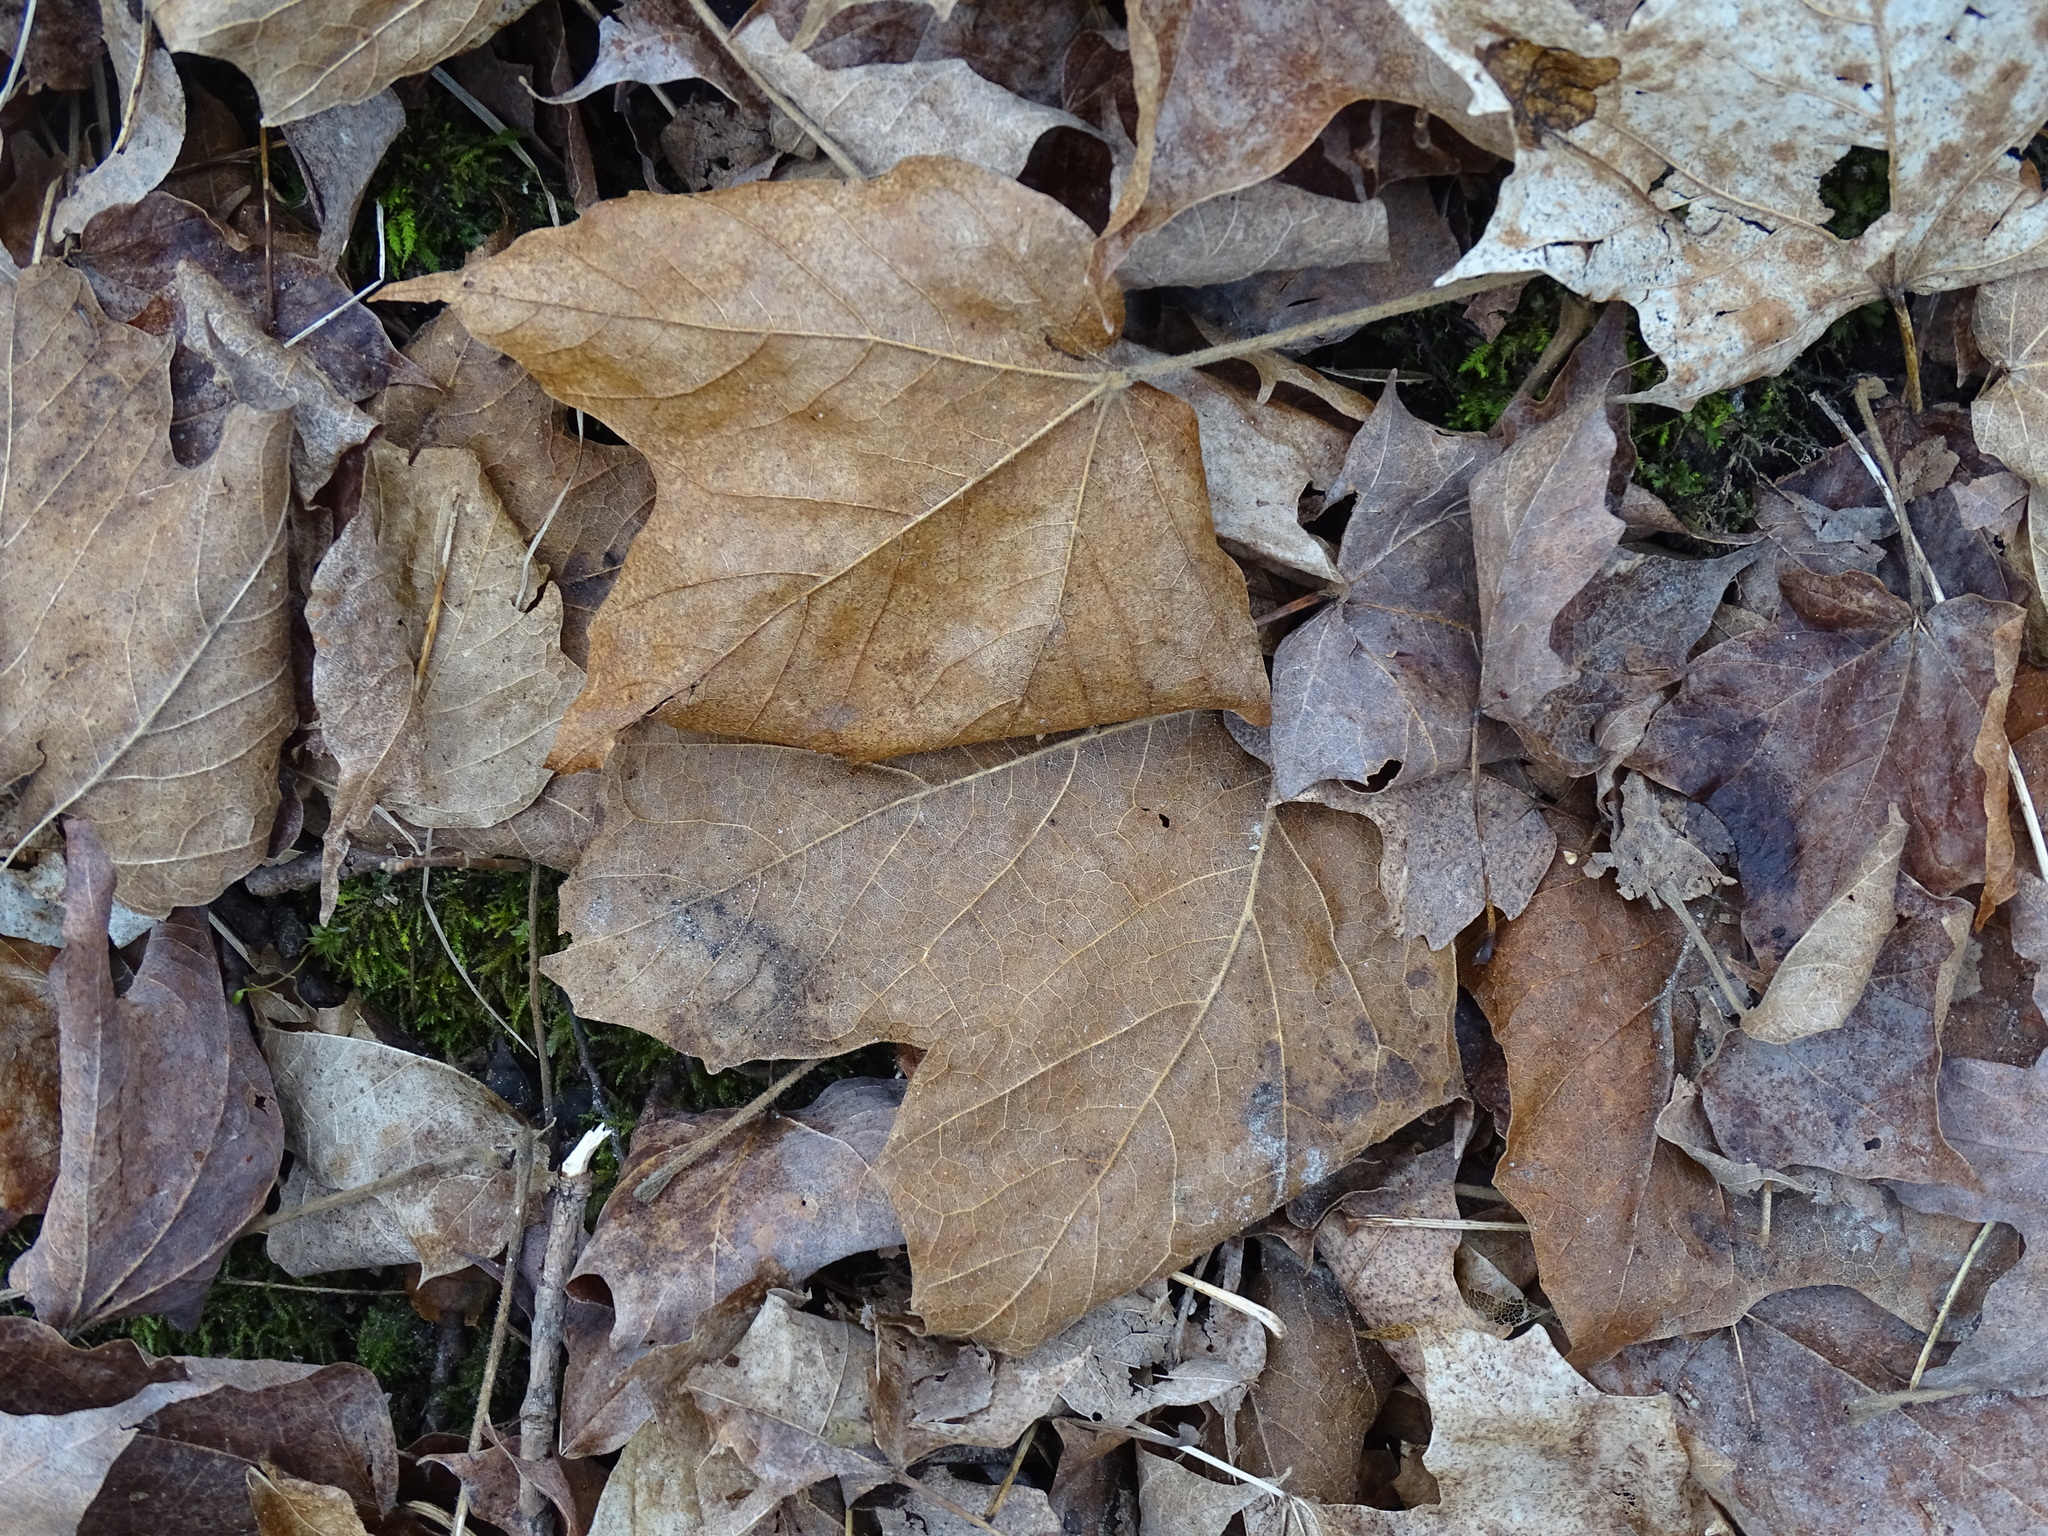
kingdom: Plantae
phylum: Tracheophyta
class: Magnoliopsida
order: Sapindales
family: Sapindaceae
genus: Acer
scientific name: Acer nigrum
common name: Black maple
